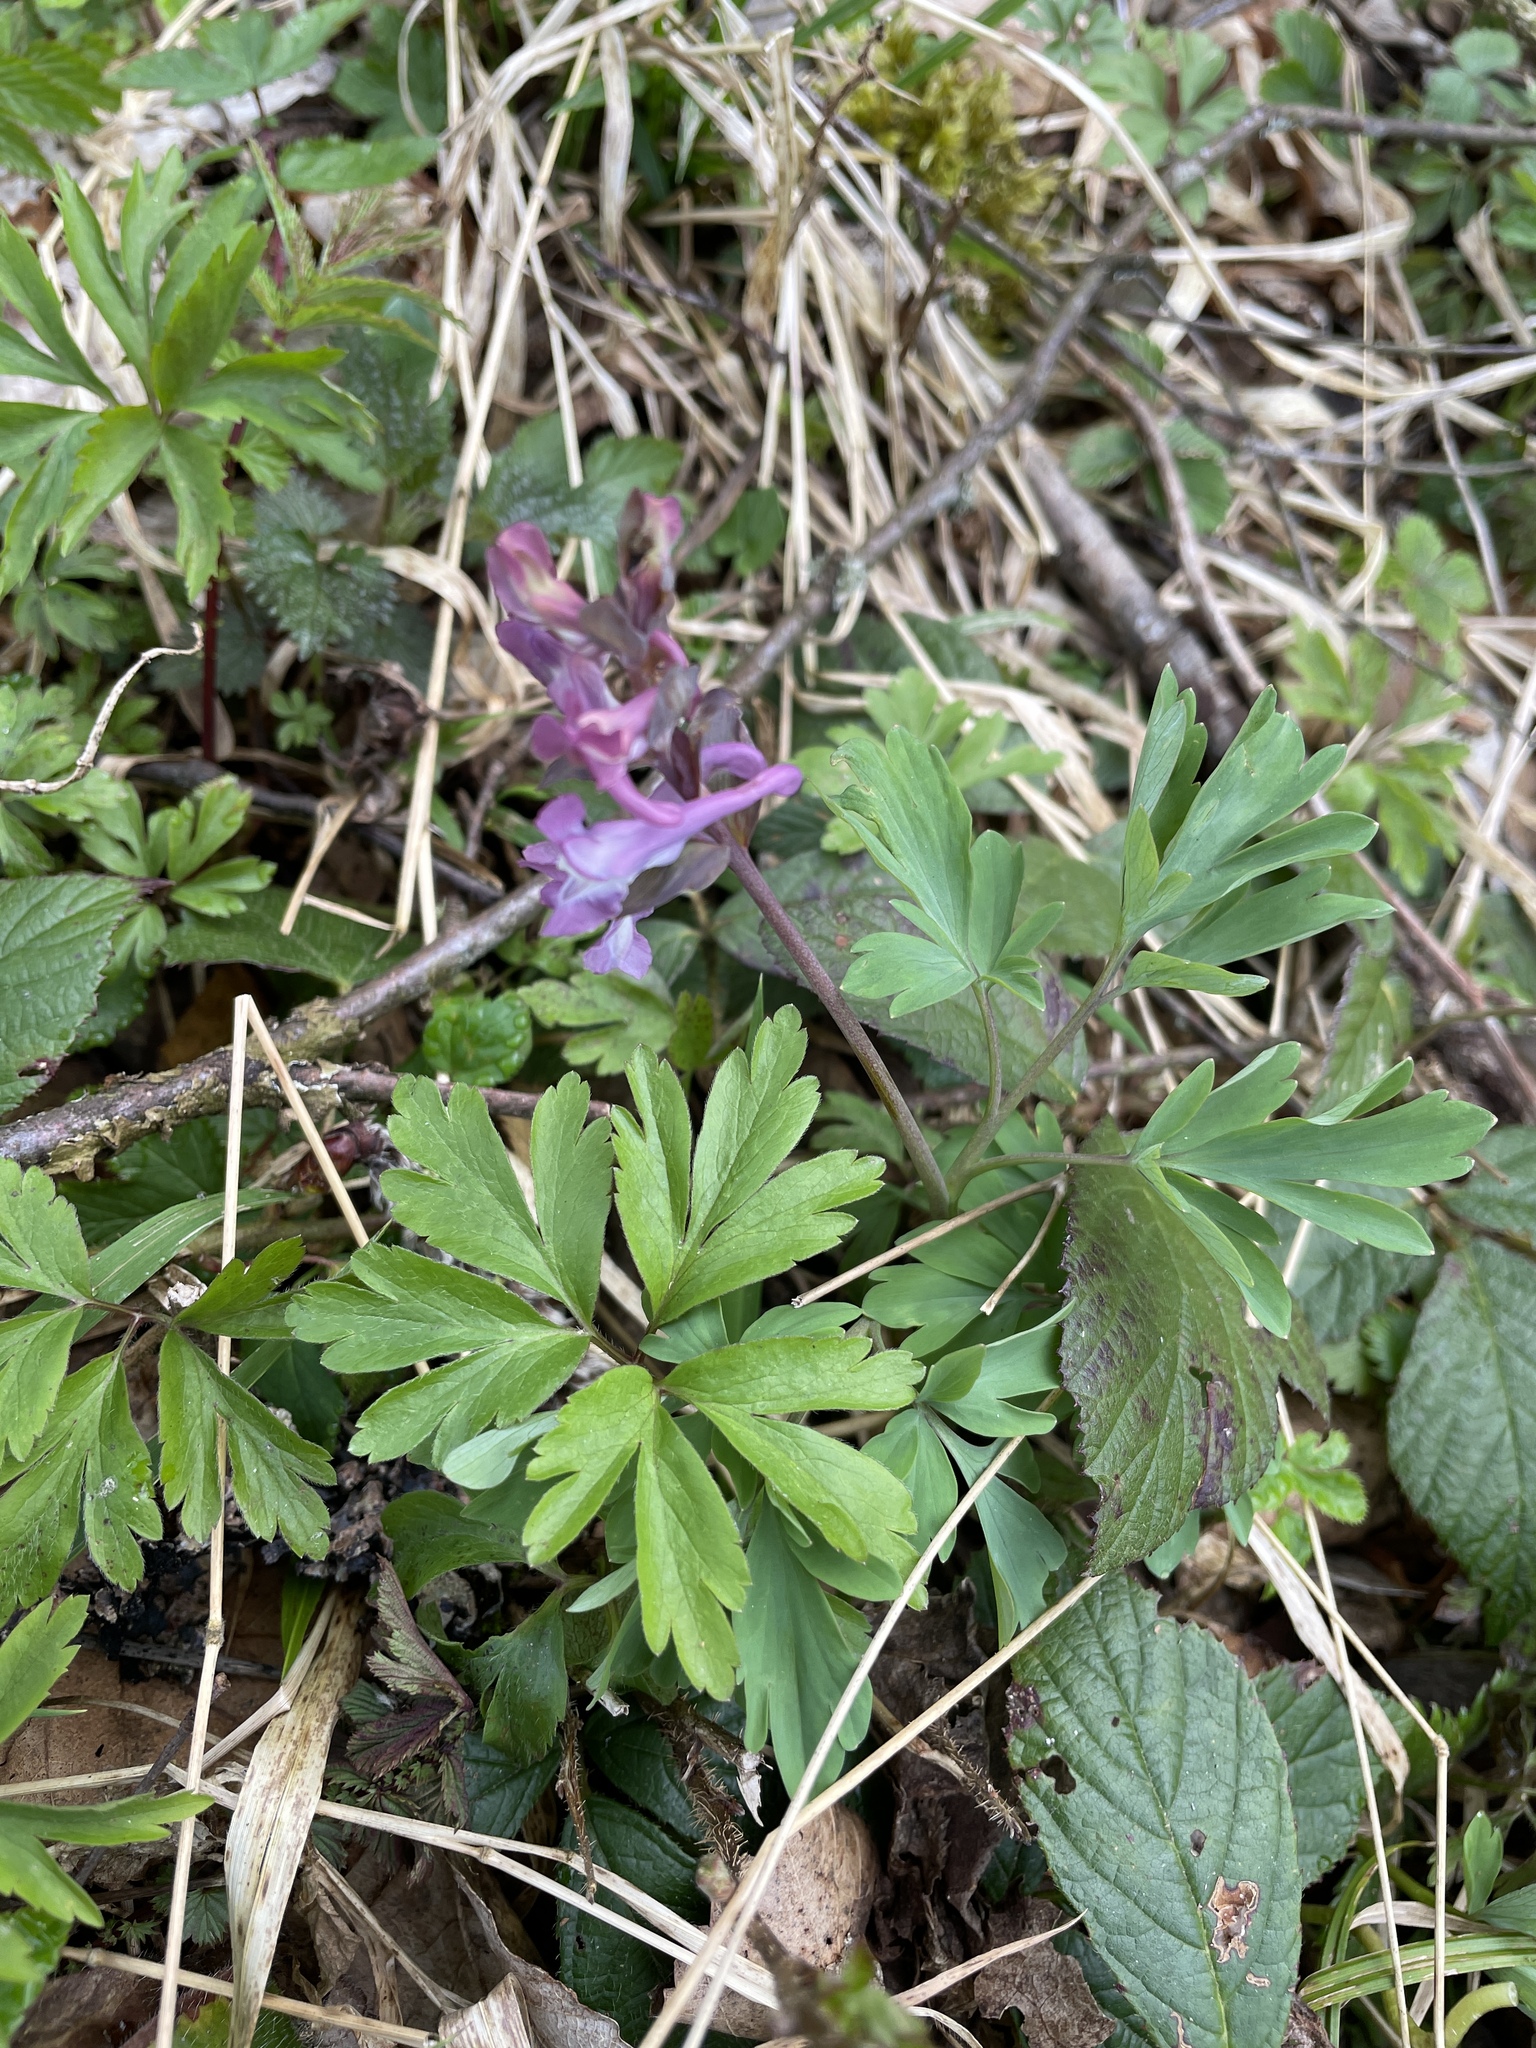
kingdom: Plantae
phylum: Tracheophyta
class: Magnoliopsida
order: Ranunculales
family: Papaveraceae
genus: Corydalis
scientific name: Corydalis cava
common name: Hollowroot
